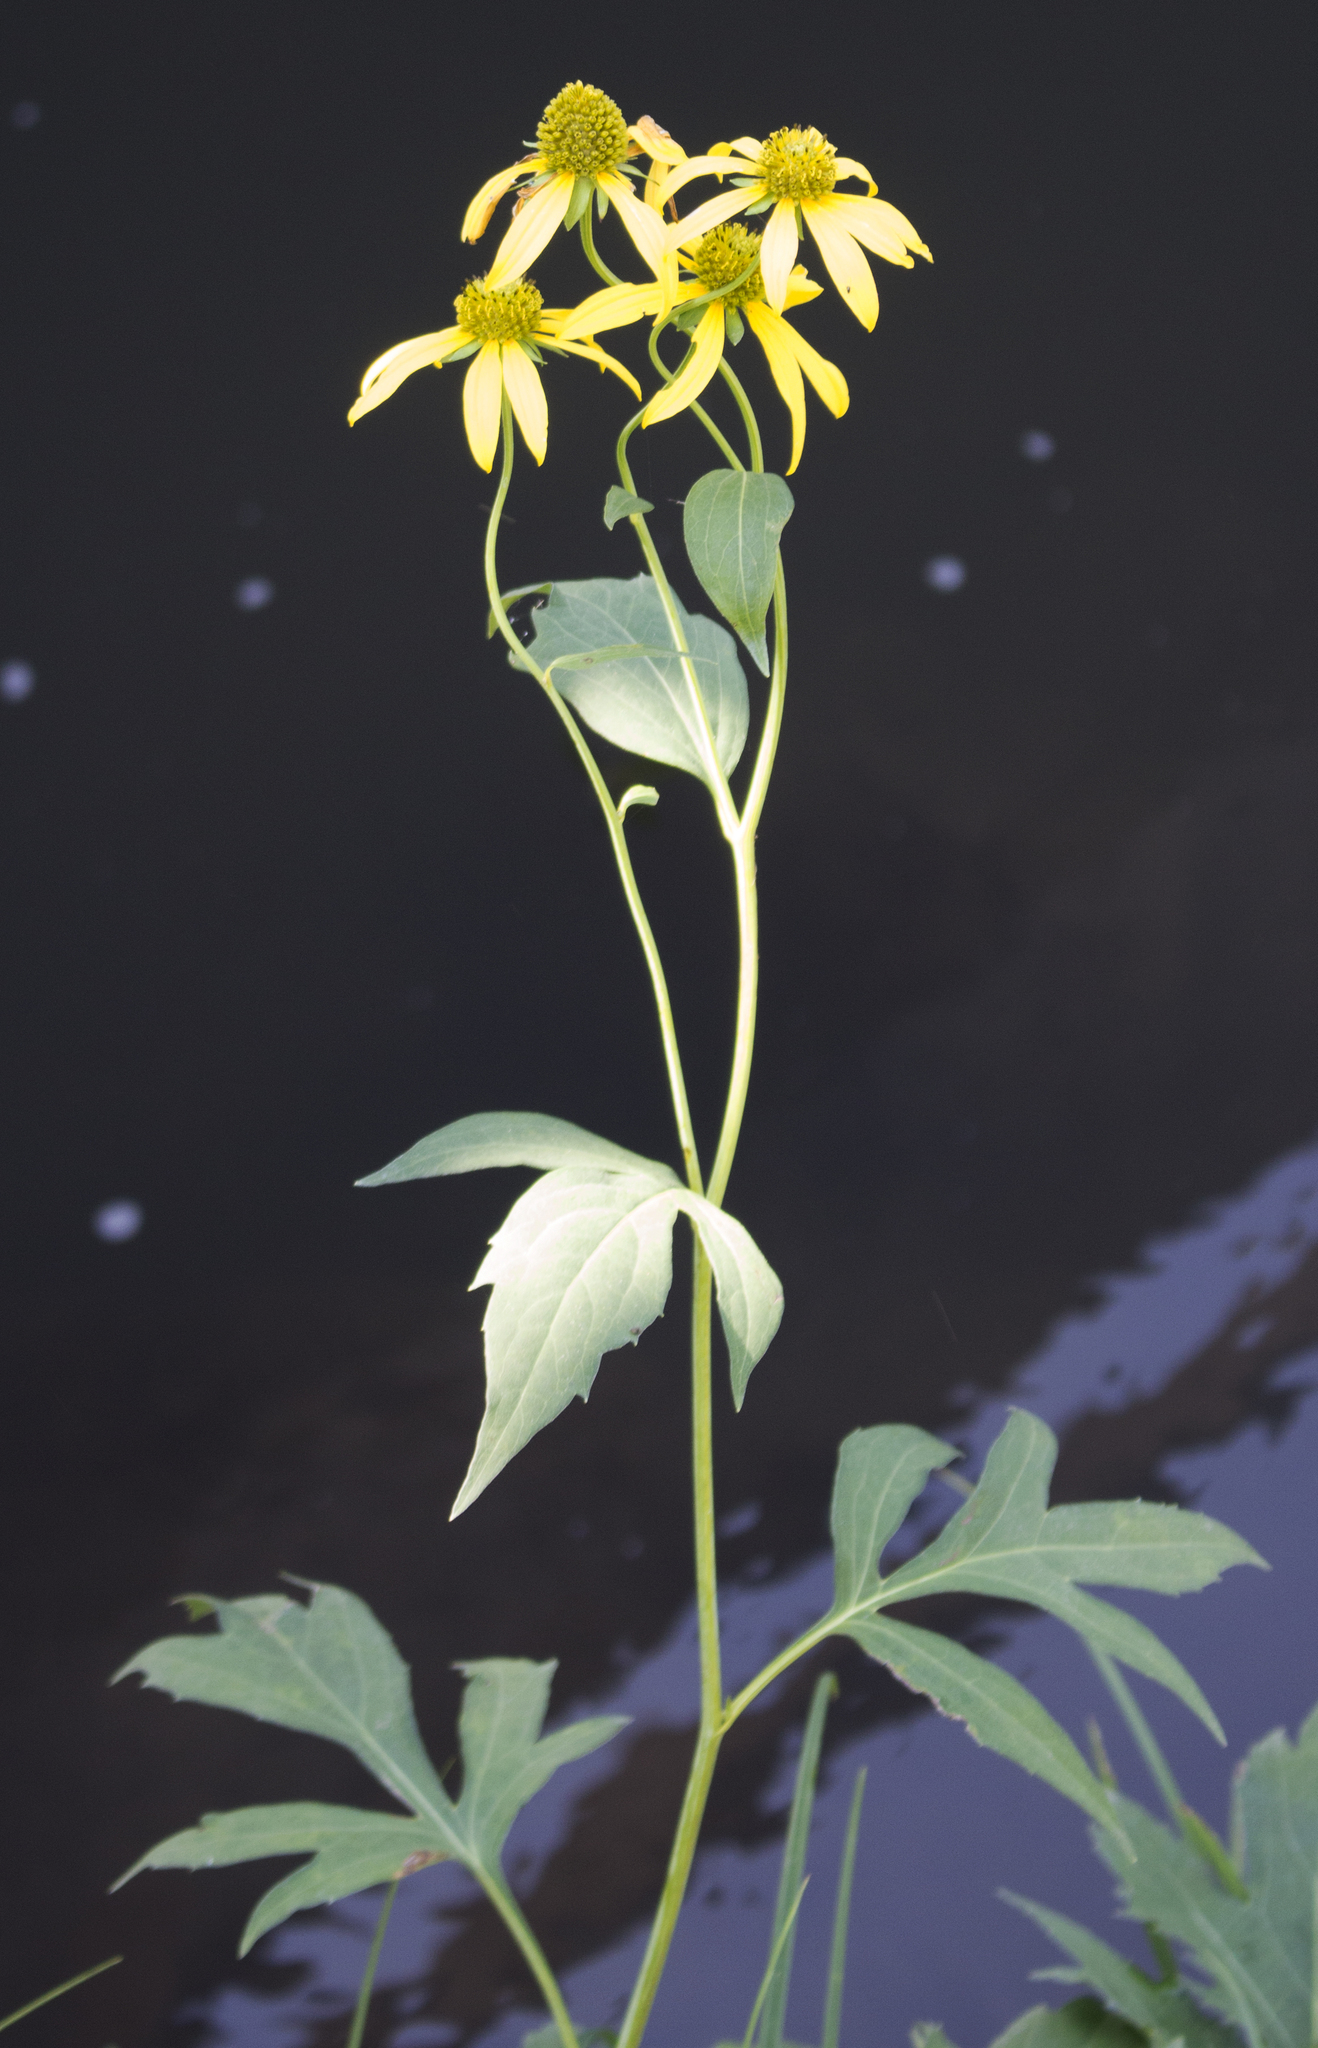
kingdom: Plantae
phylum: Tracheophyta
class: Magnoliopsida
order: Asterales
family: Asteraceae
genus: Rudbeckia
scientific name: Rudbeckia laciniata
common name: Coneflower
